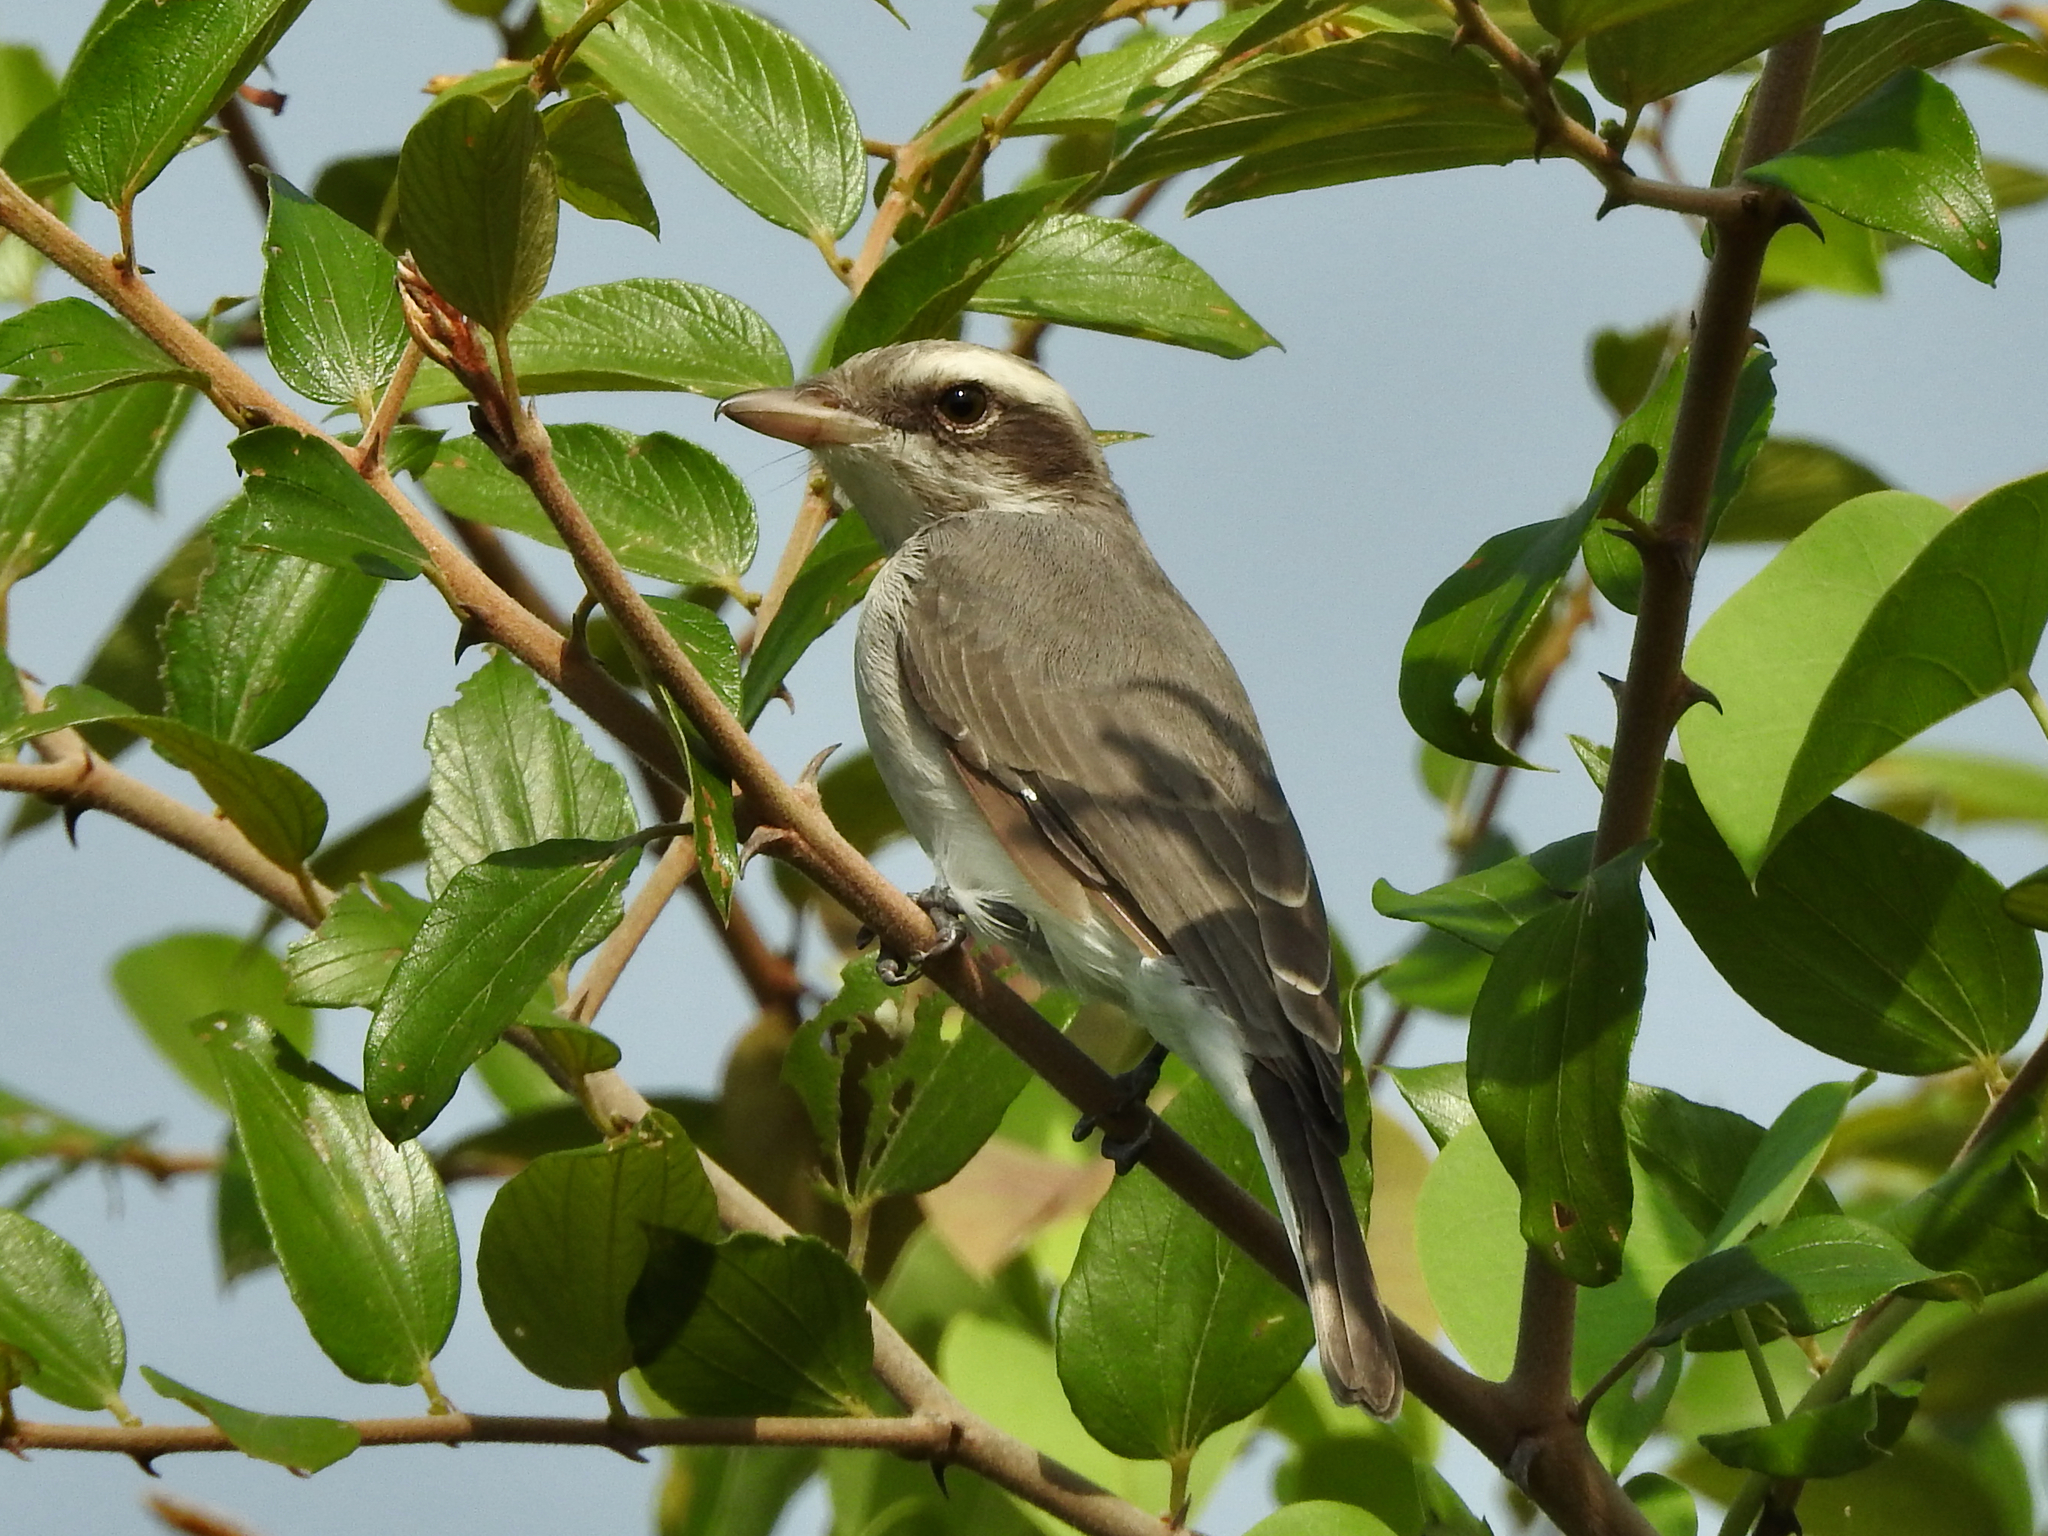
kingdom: Animalia
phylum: Chordata
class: Aves
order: Passeriformes
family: Tephrodornithidae
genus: Tephrodornis
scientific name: Tephrodornis pondicerianus
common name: Common woodshrike
